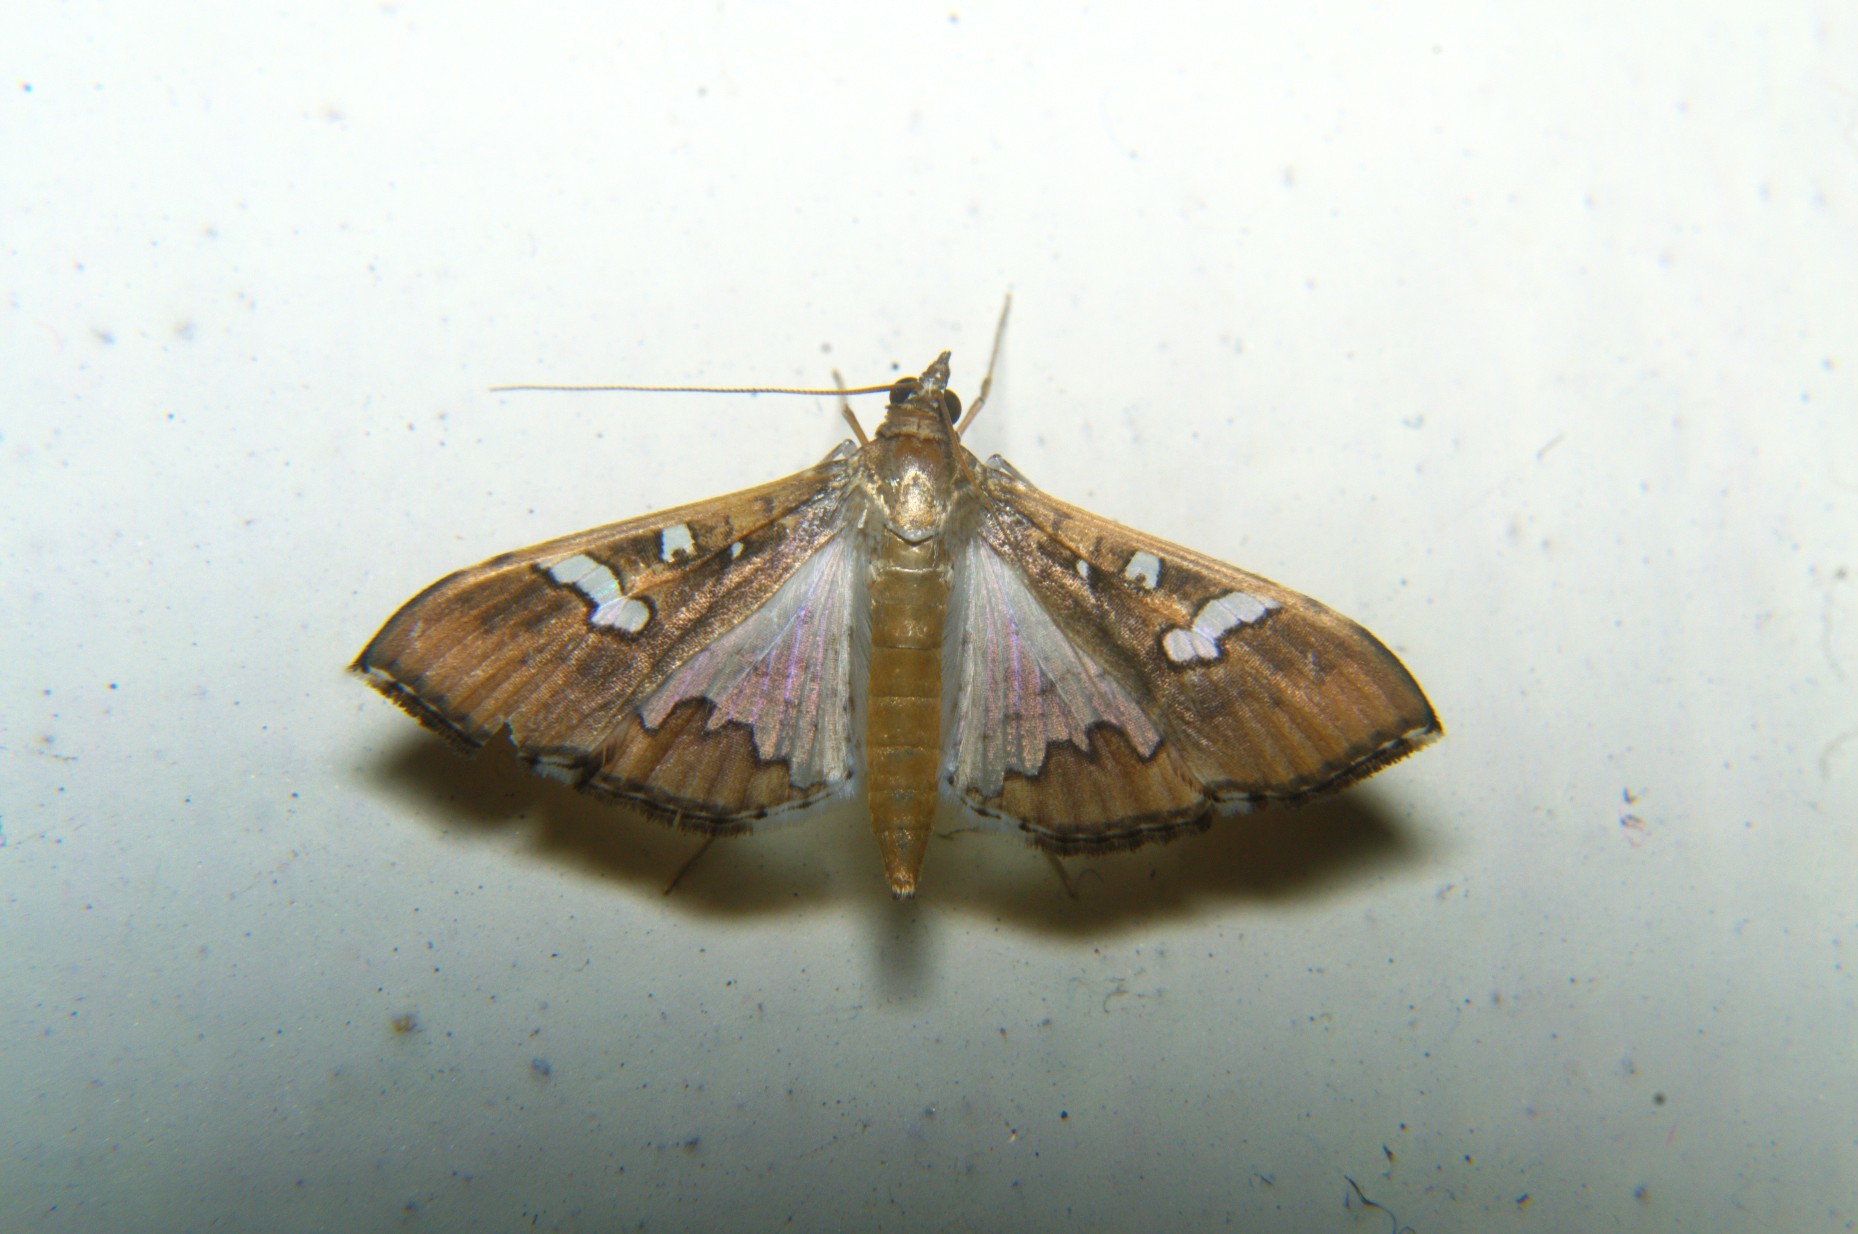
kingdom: Animalia
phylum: Arthropoda
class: Insecta
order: Lepidoptera
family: Crambidae
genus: Maruca
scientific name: Maruca vitrata
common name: Maruca pod borer
